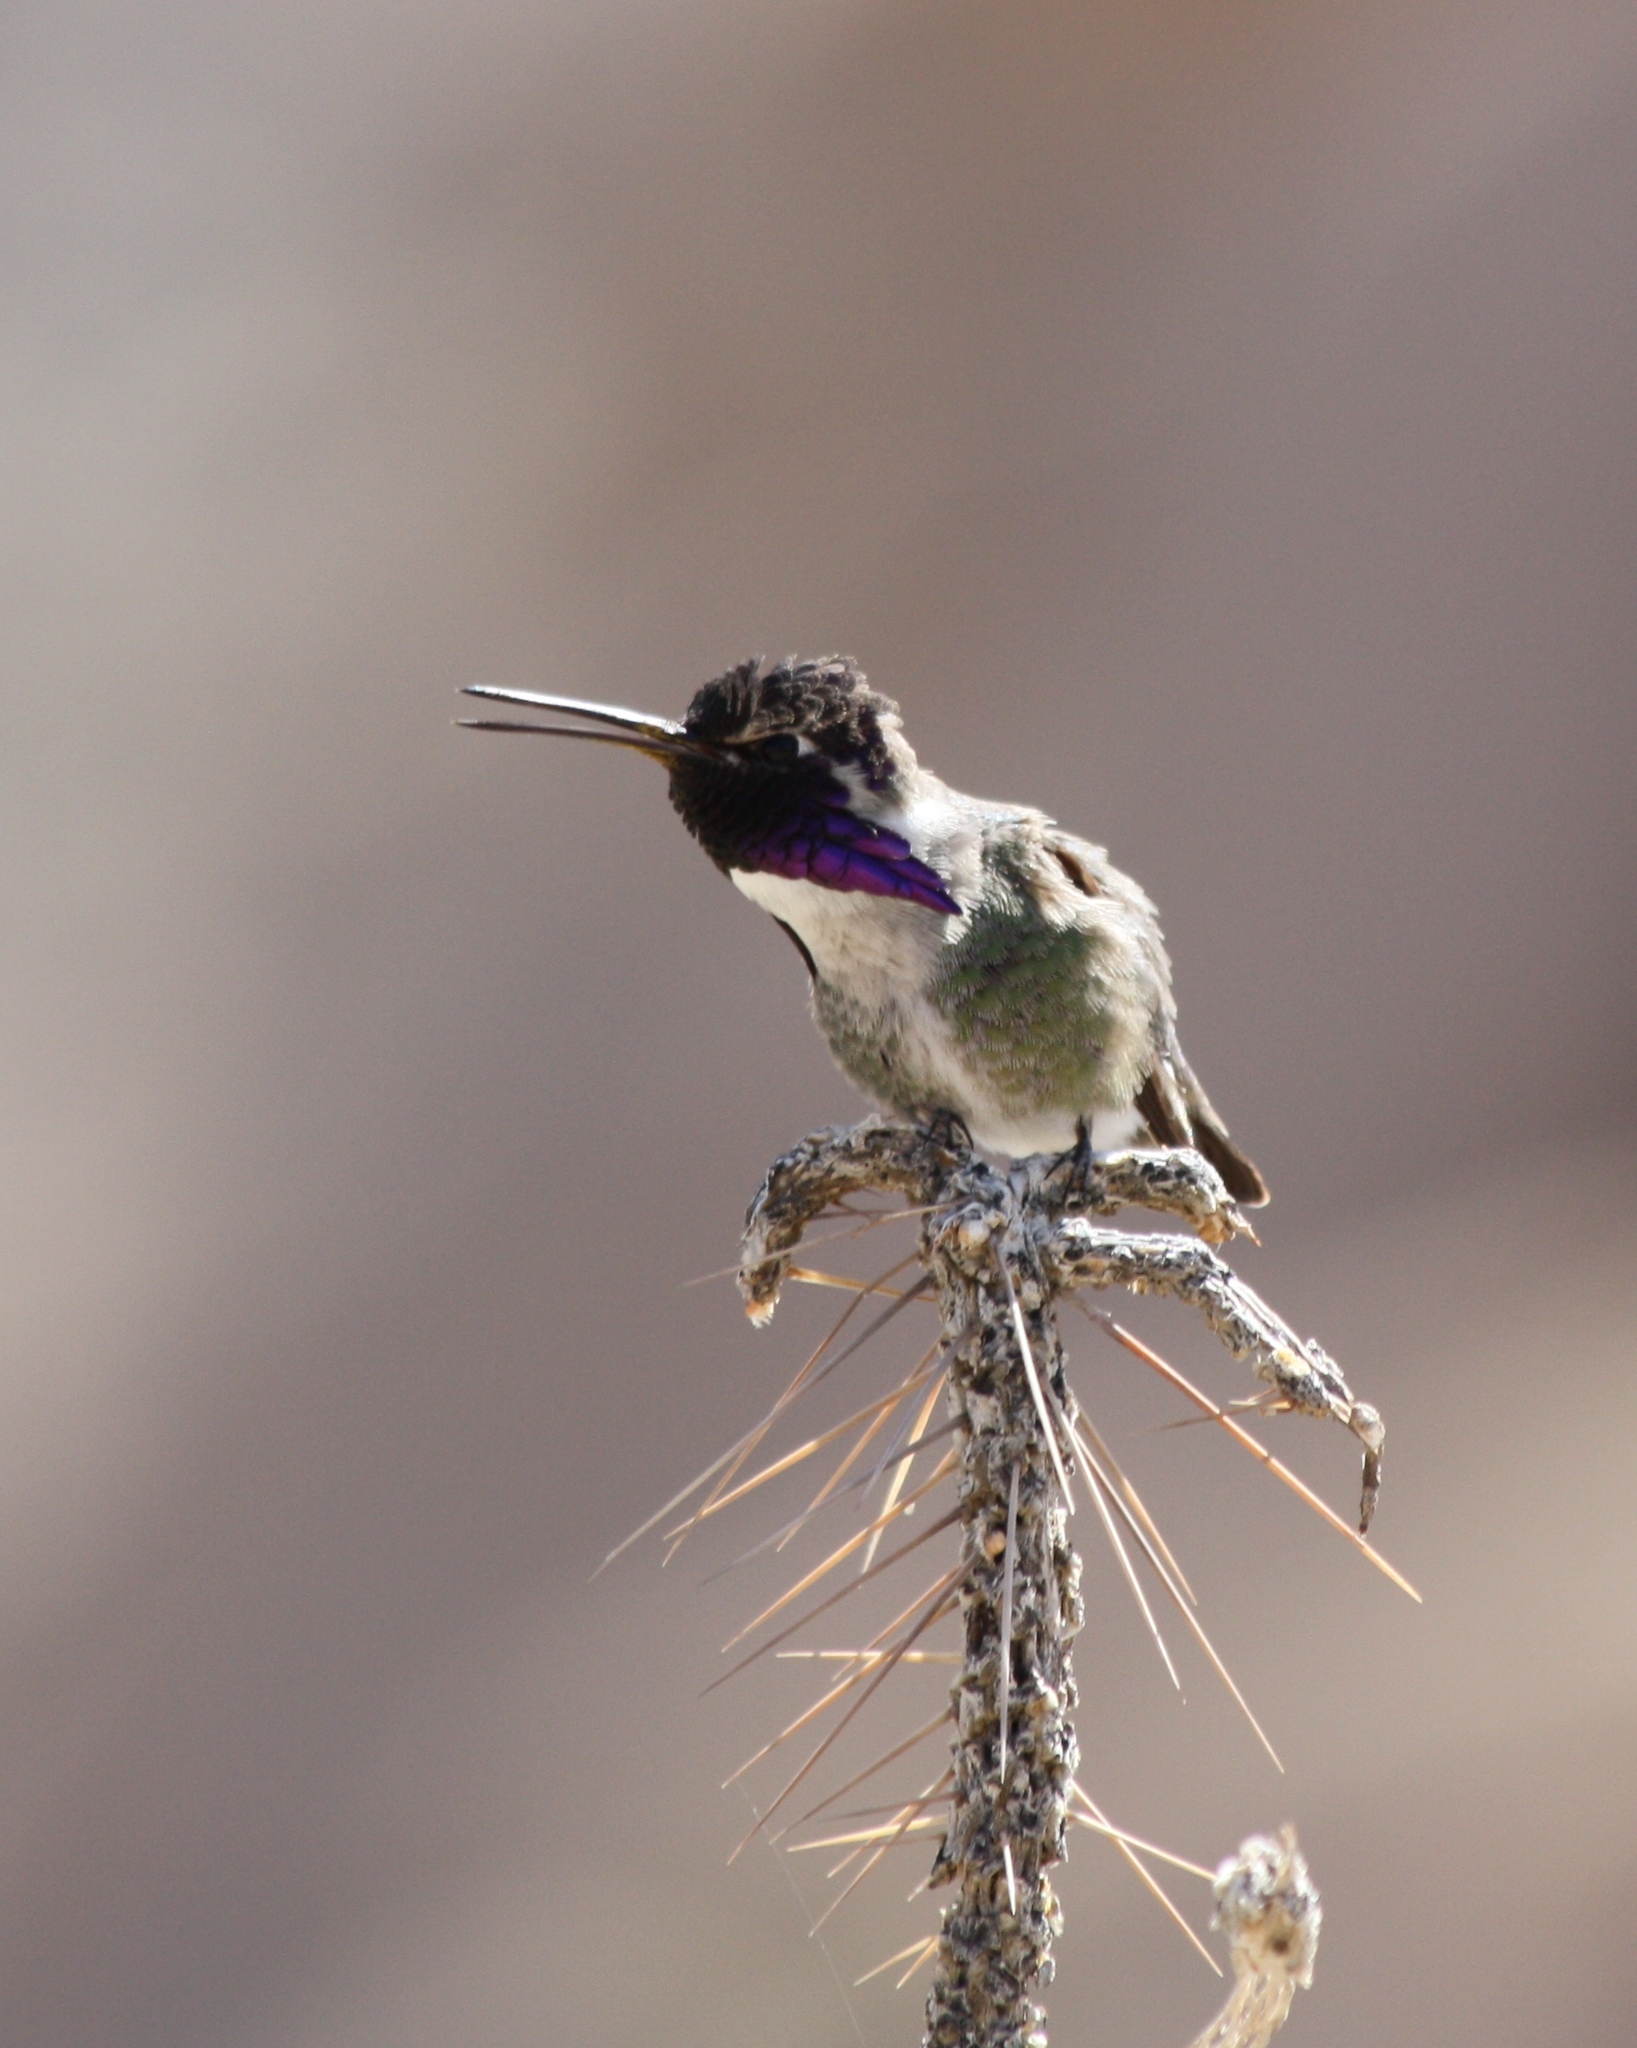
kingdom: Animalia
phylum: Chordata
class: Aves
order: Apodiformes
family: Trochilidae
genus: Calypte
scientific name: Calypte costae
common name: Costa's hummingbird
